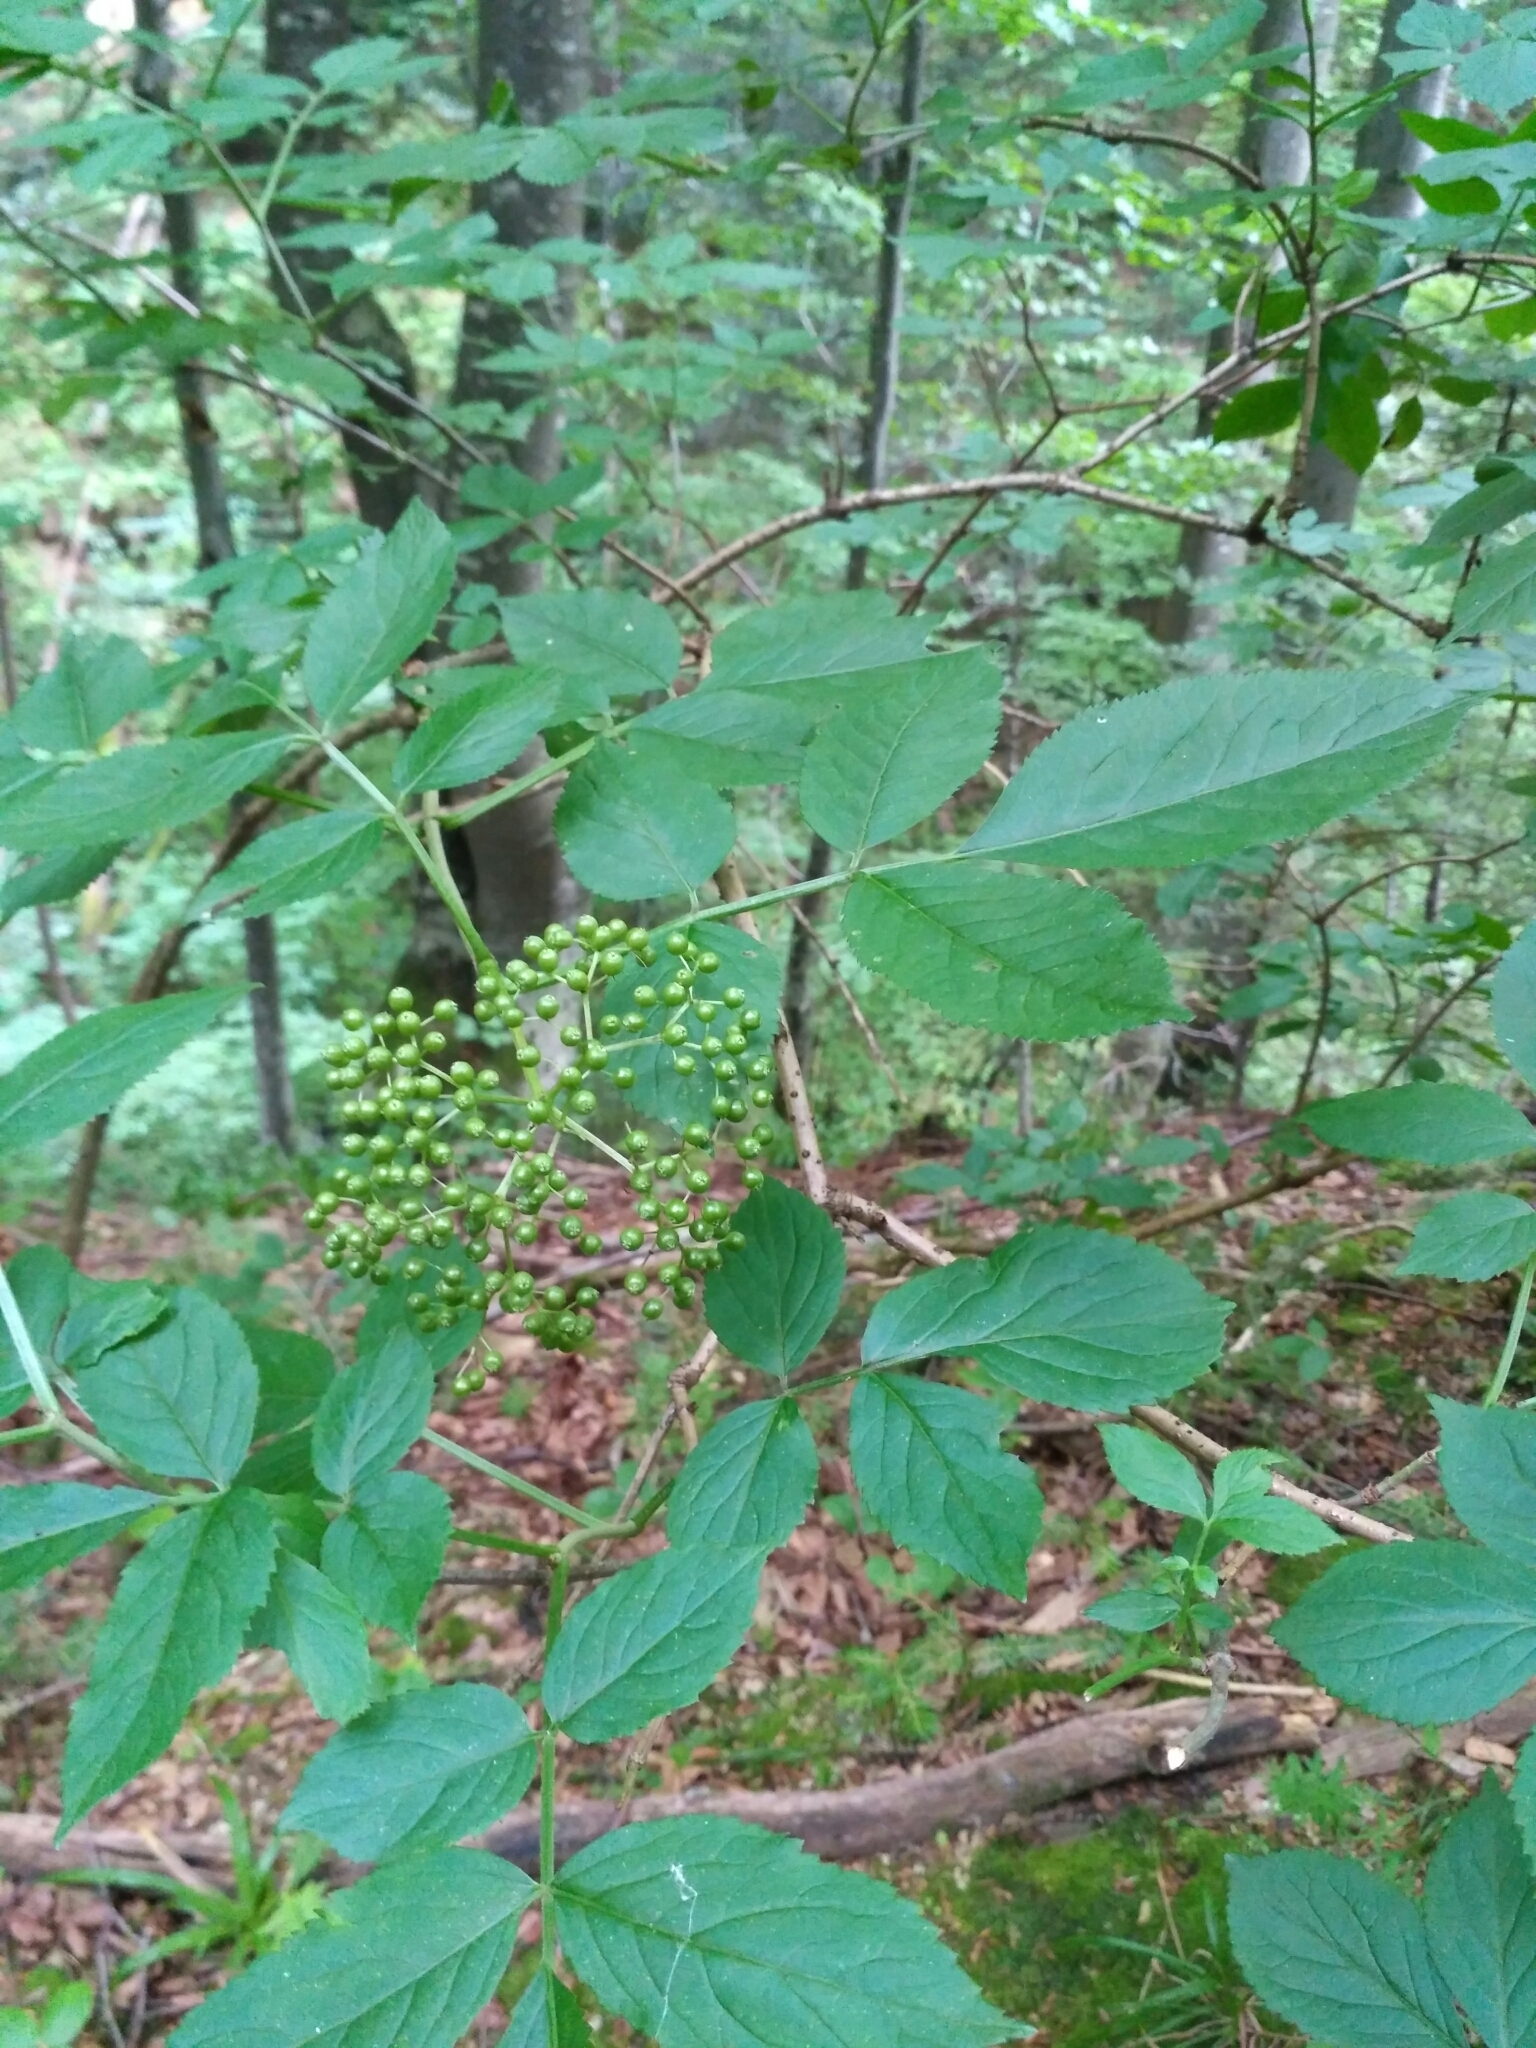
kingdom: Plantae
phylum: Tracheophyta
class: Magnoliopsida
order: Dipsacales
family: Viburnaceae
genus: Sambucus
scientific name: Sambucus nigra
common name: Elder
